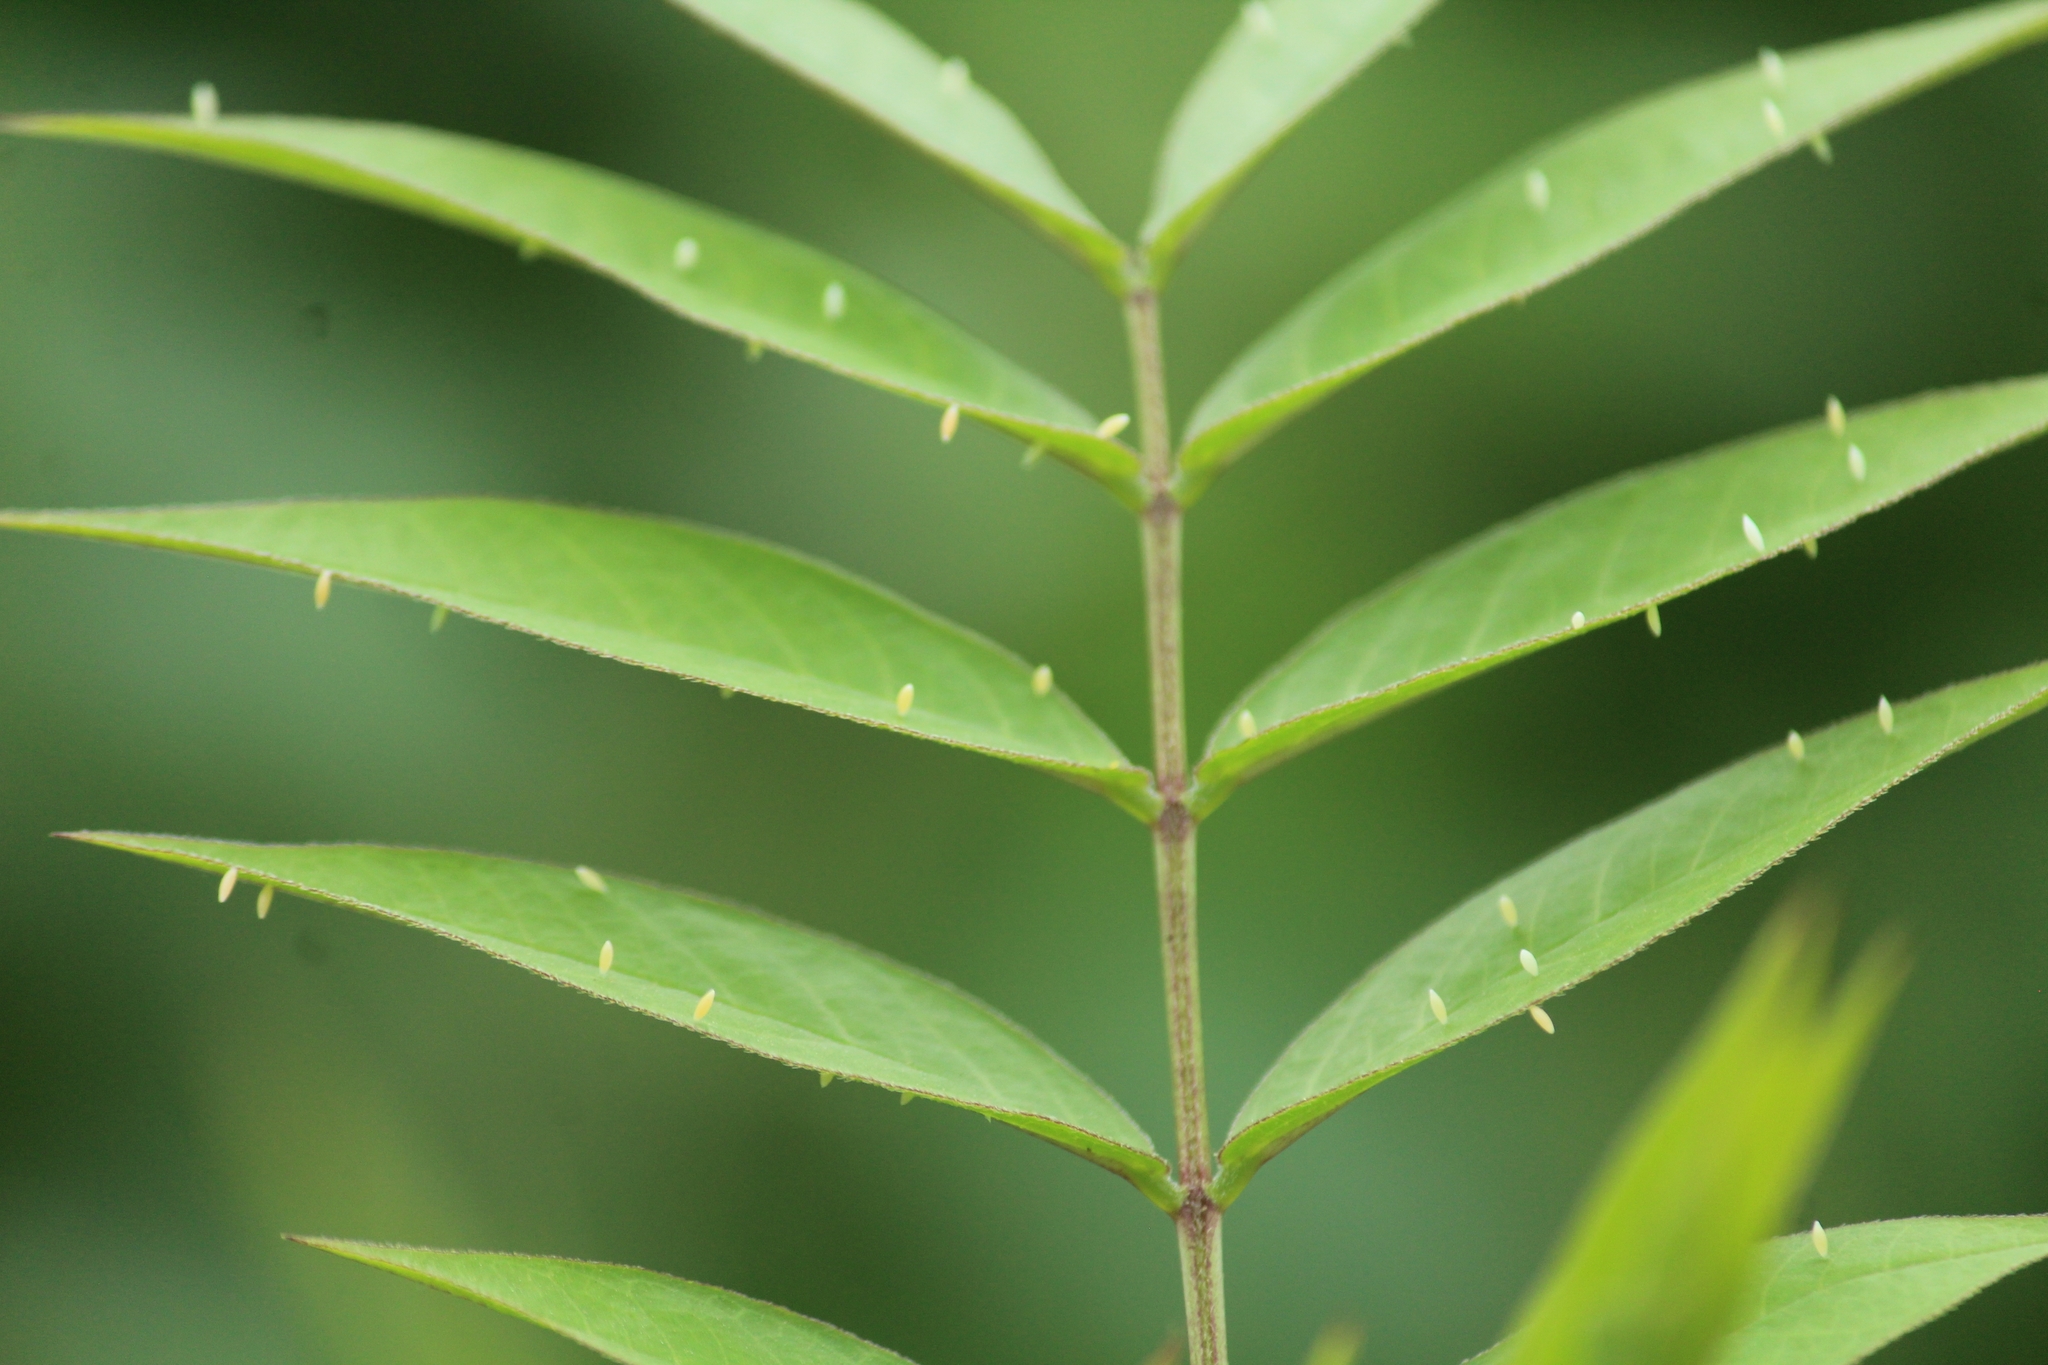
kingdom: Animalia
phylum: Arthropoda
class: Insecta
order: Lepidoptera
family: Pieridae
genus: Catopsilia
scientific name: Catopsilia pyranthe
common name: Mottled emigrant
